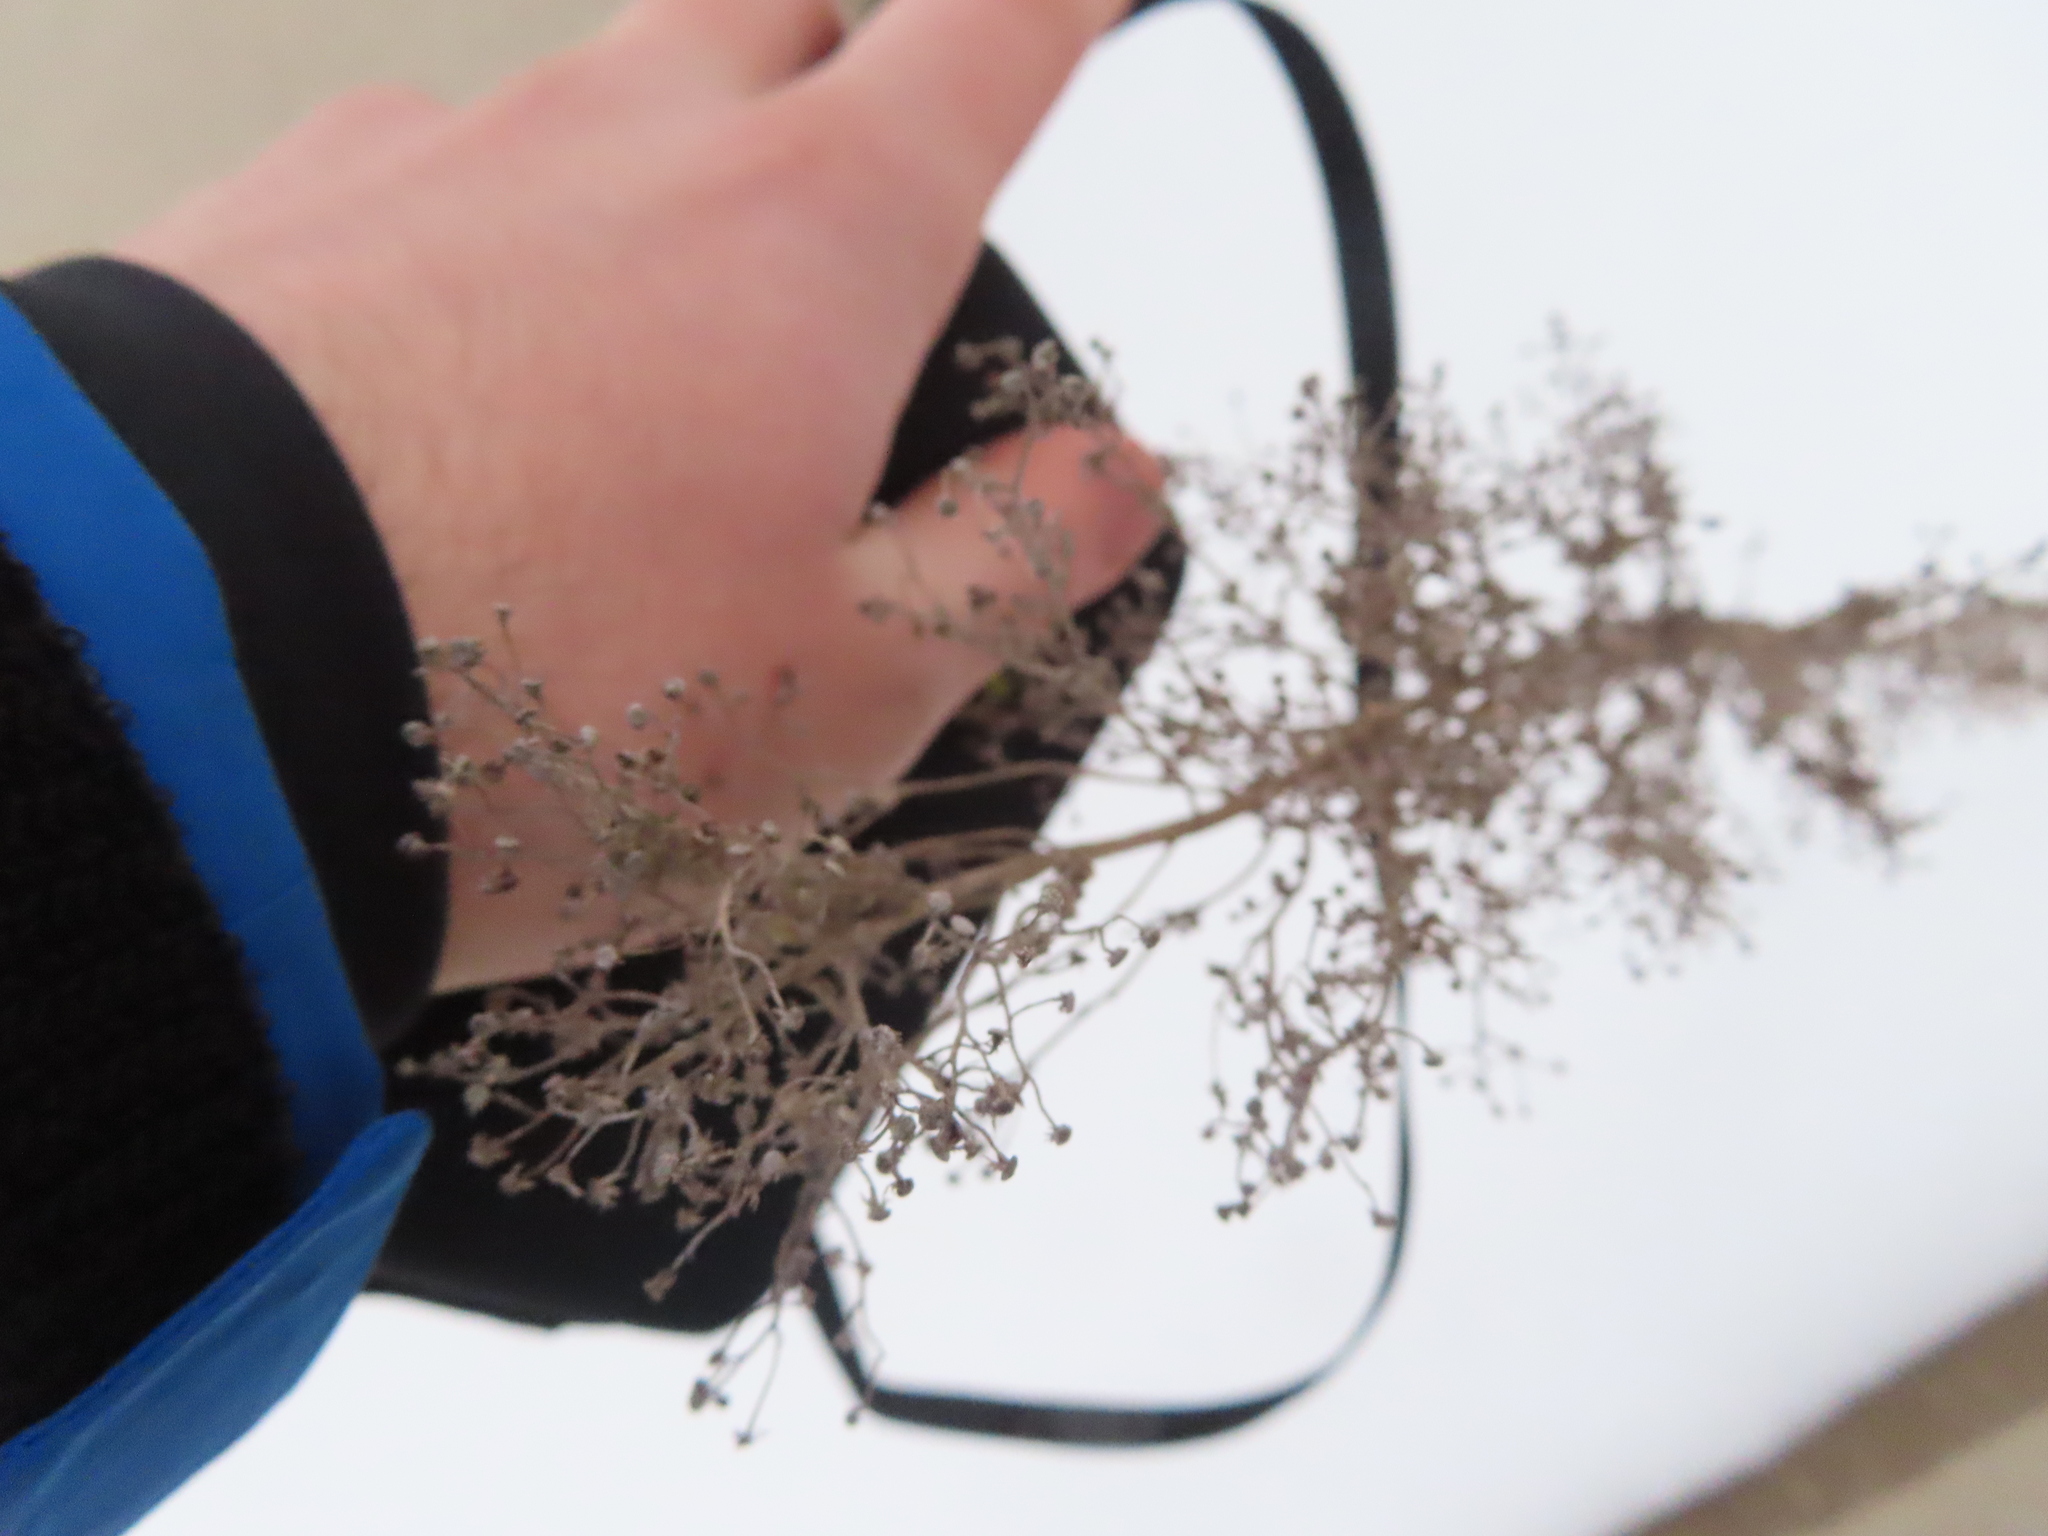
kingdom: Plantae
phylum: Tracheophyta
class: Magnoliopsida
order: Asterales
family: Asteraceae
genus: Erigeron
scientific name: Erigeron canadensis
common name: Canadian fleabane
